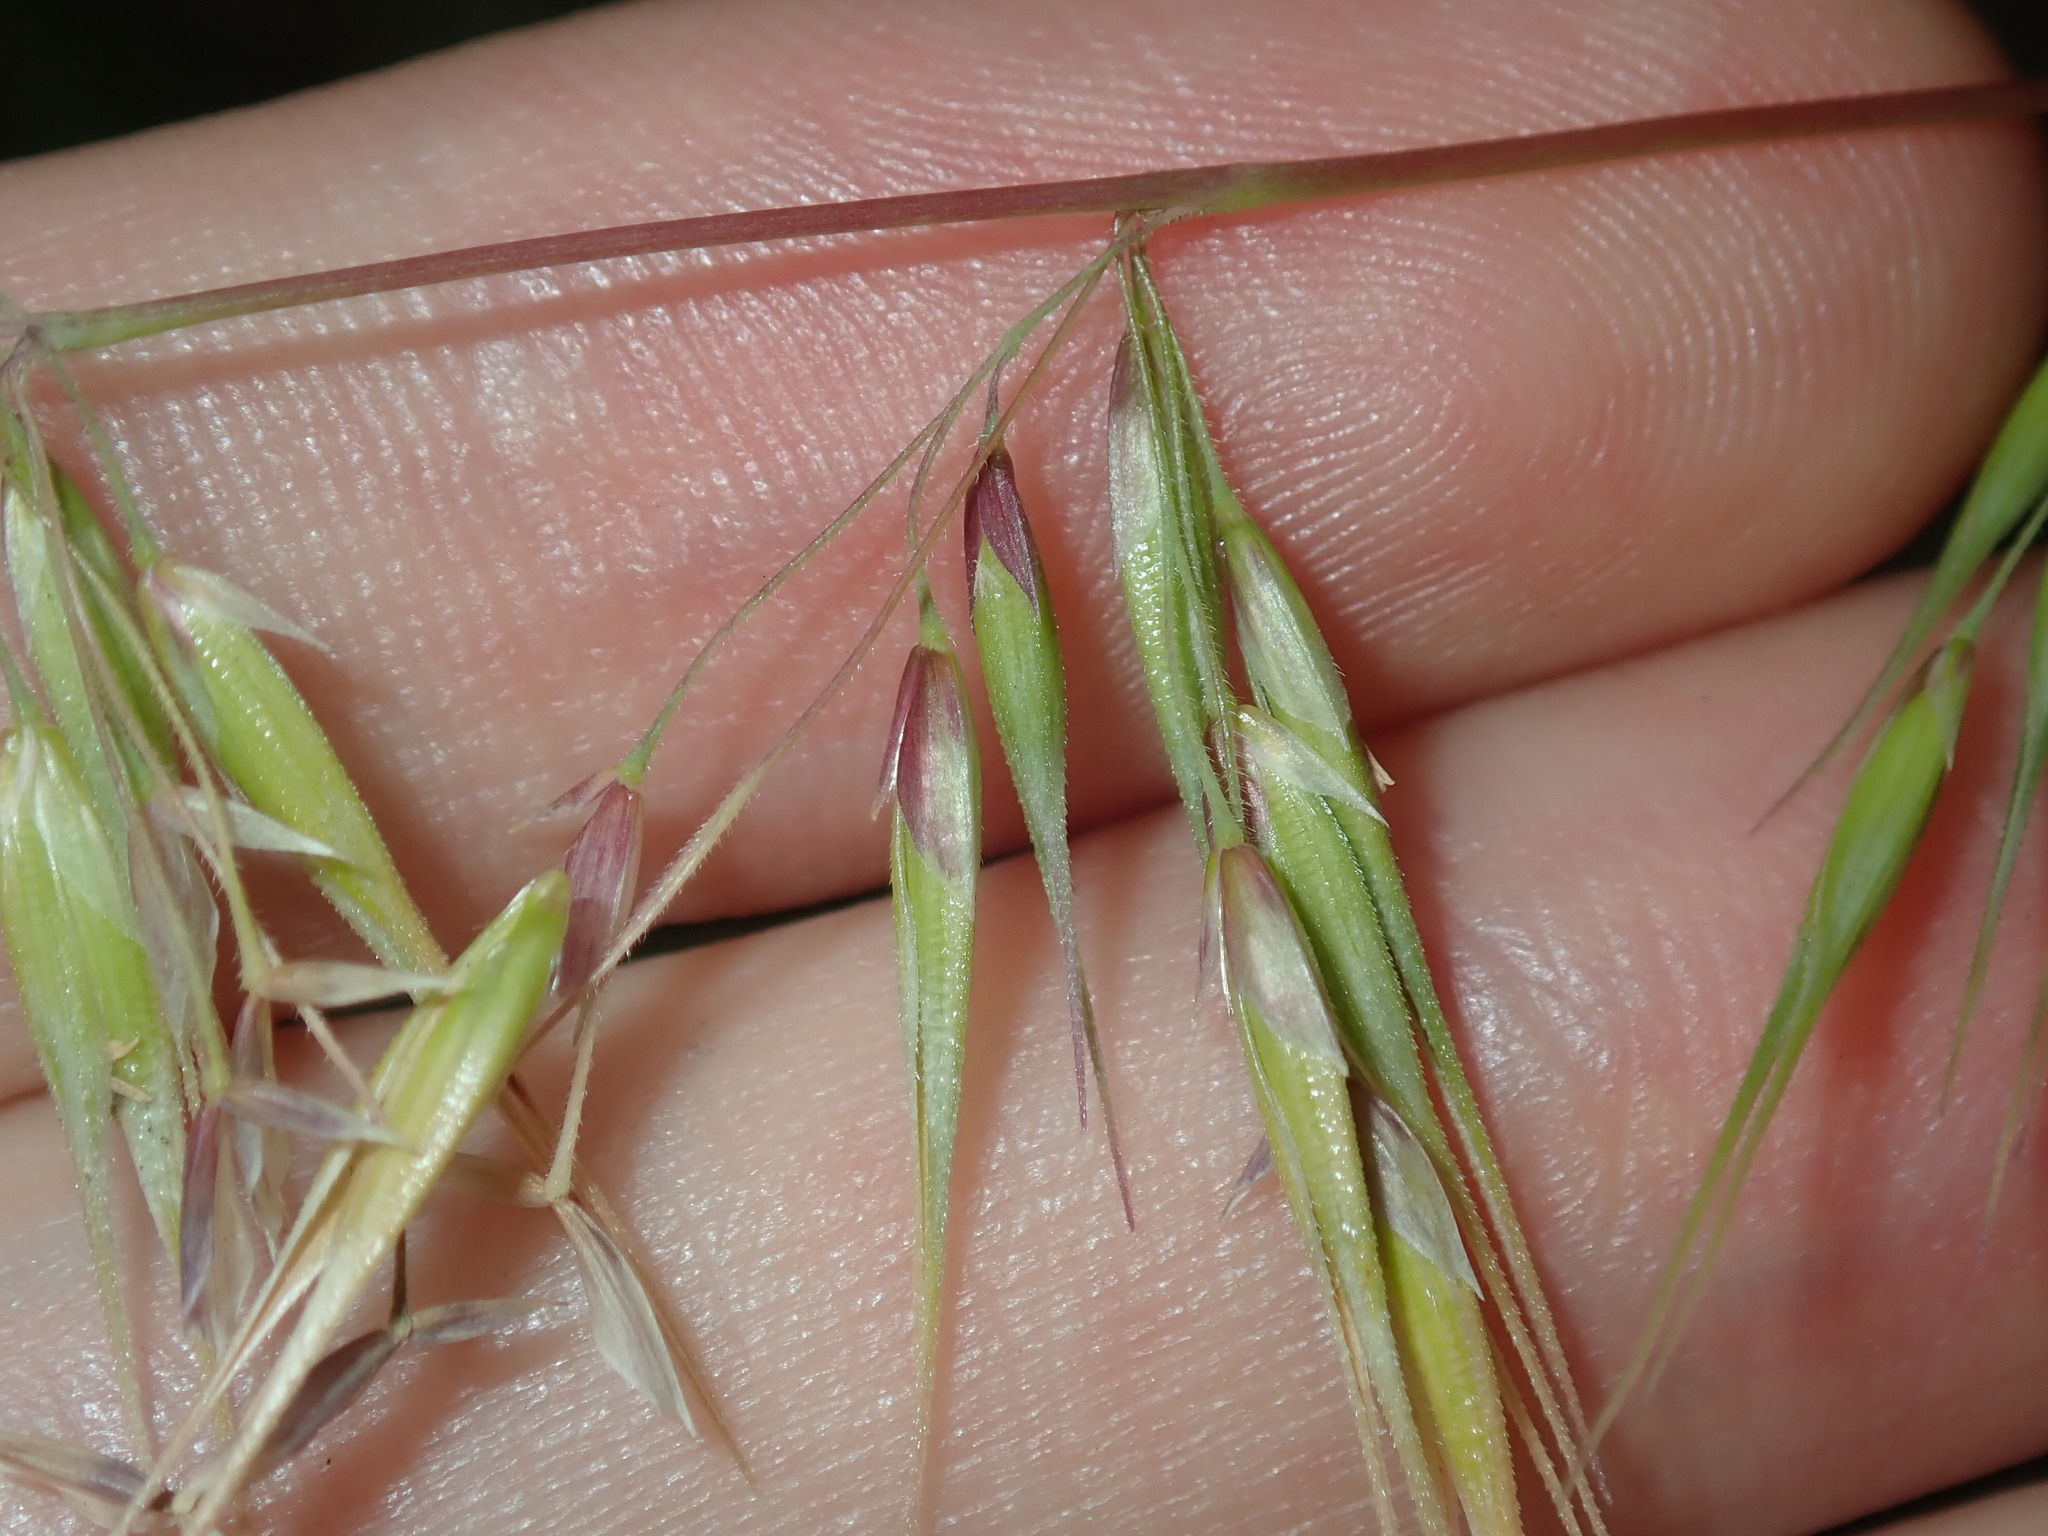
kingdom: Plantae
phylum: Tracheophyta
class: Liliopsida
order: Poales
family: Poaceae
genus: Ehrharta
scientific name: Ehrharta longiflora
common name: Longflowered veldtgrass
